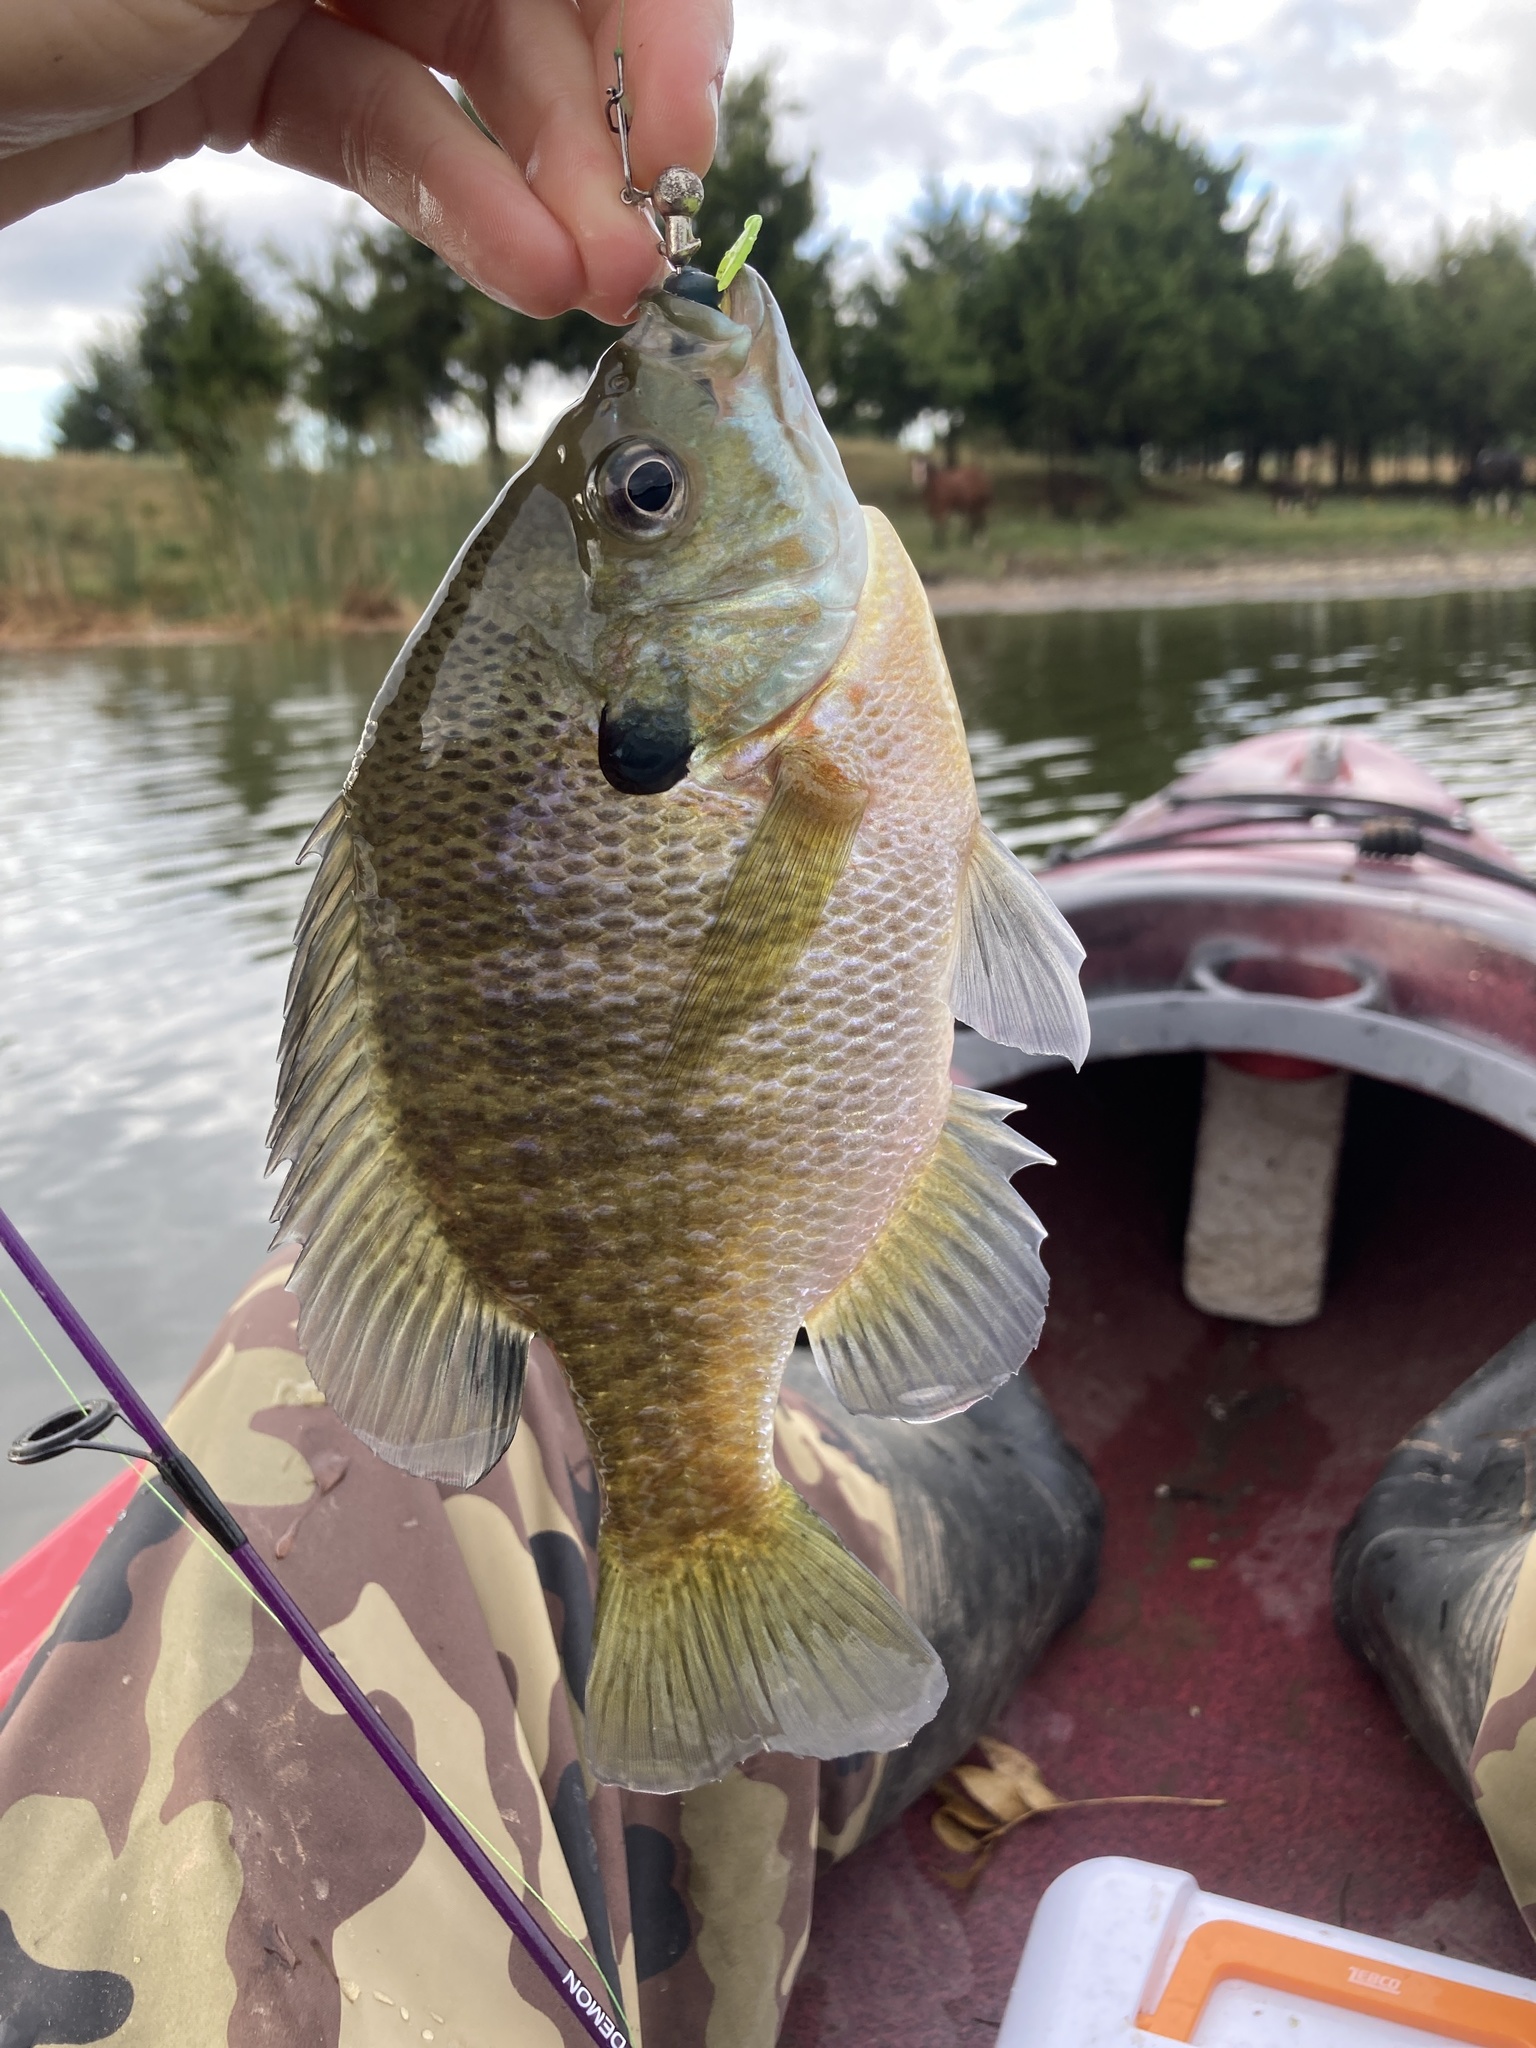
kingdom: Animalia
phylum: Chordata
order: Perciformes
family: Centrarchidae
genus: Lepomis
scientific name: Lepomis macrochirus
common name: Bluegill
